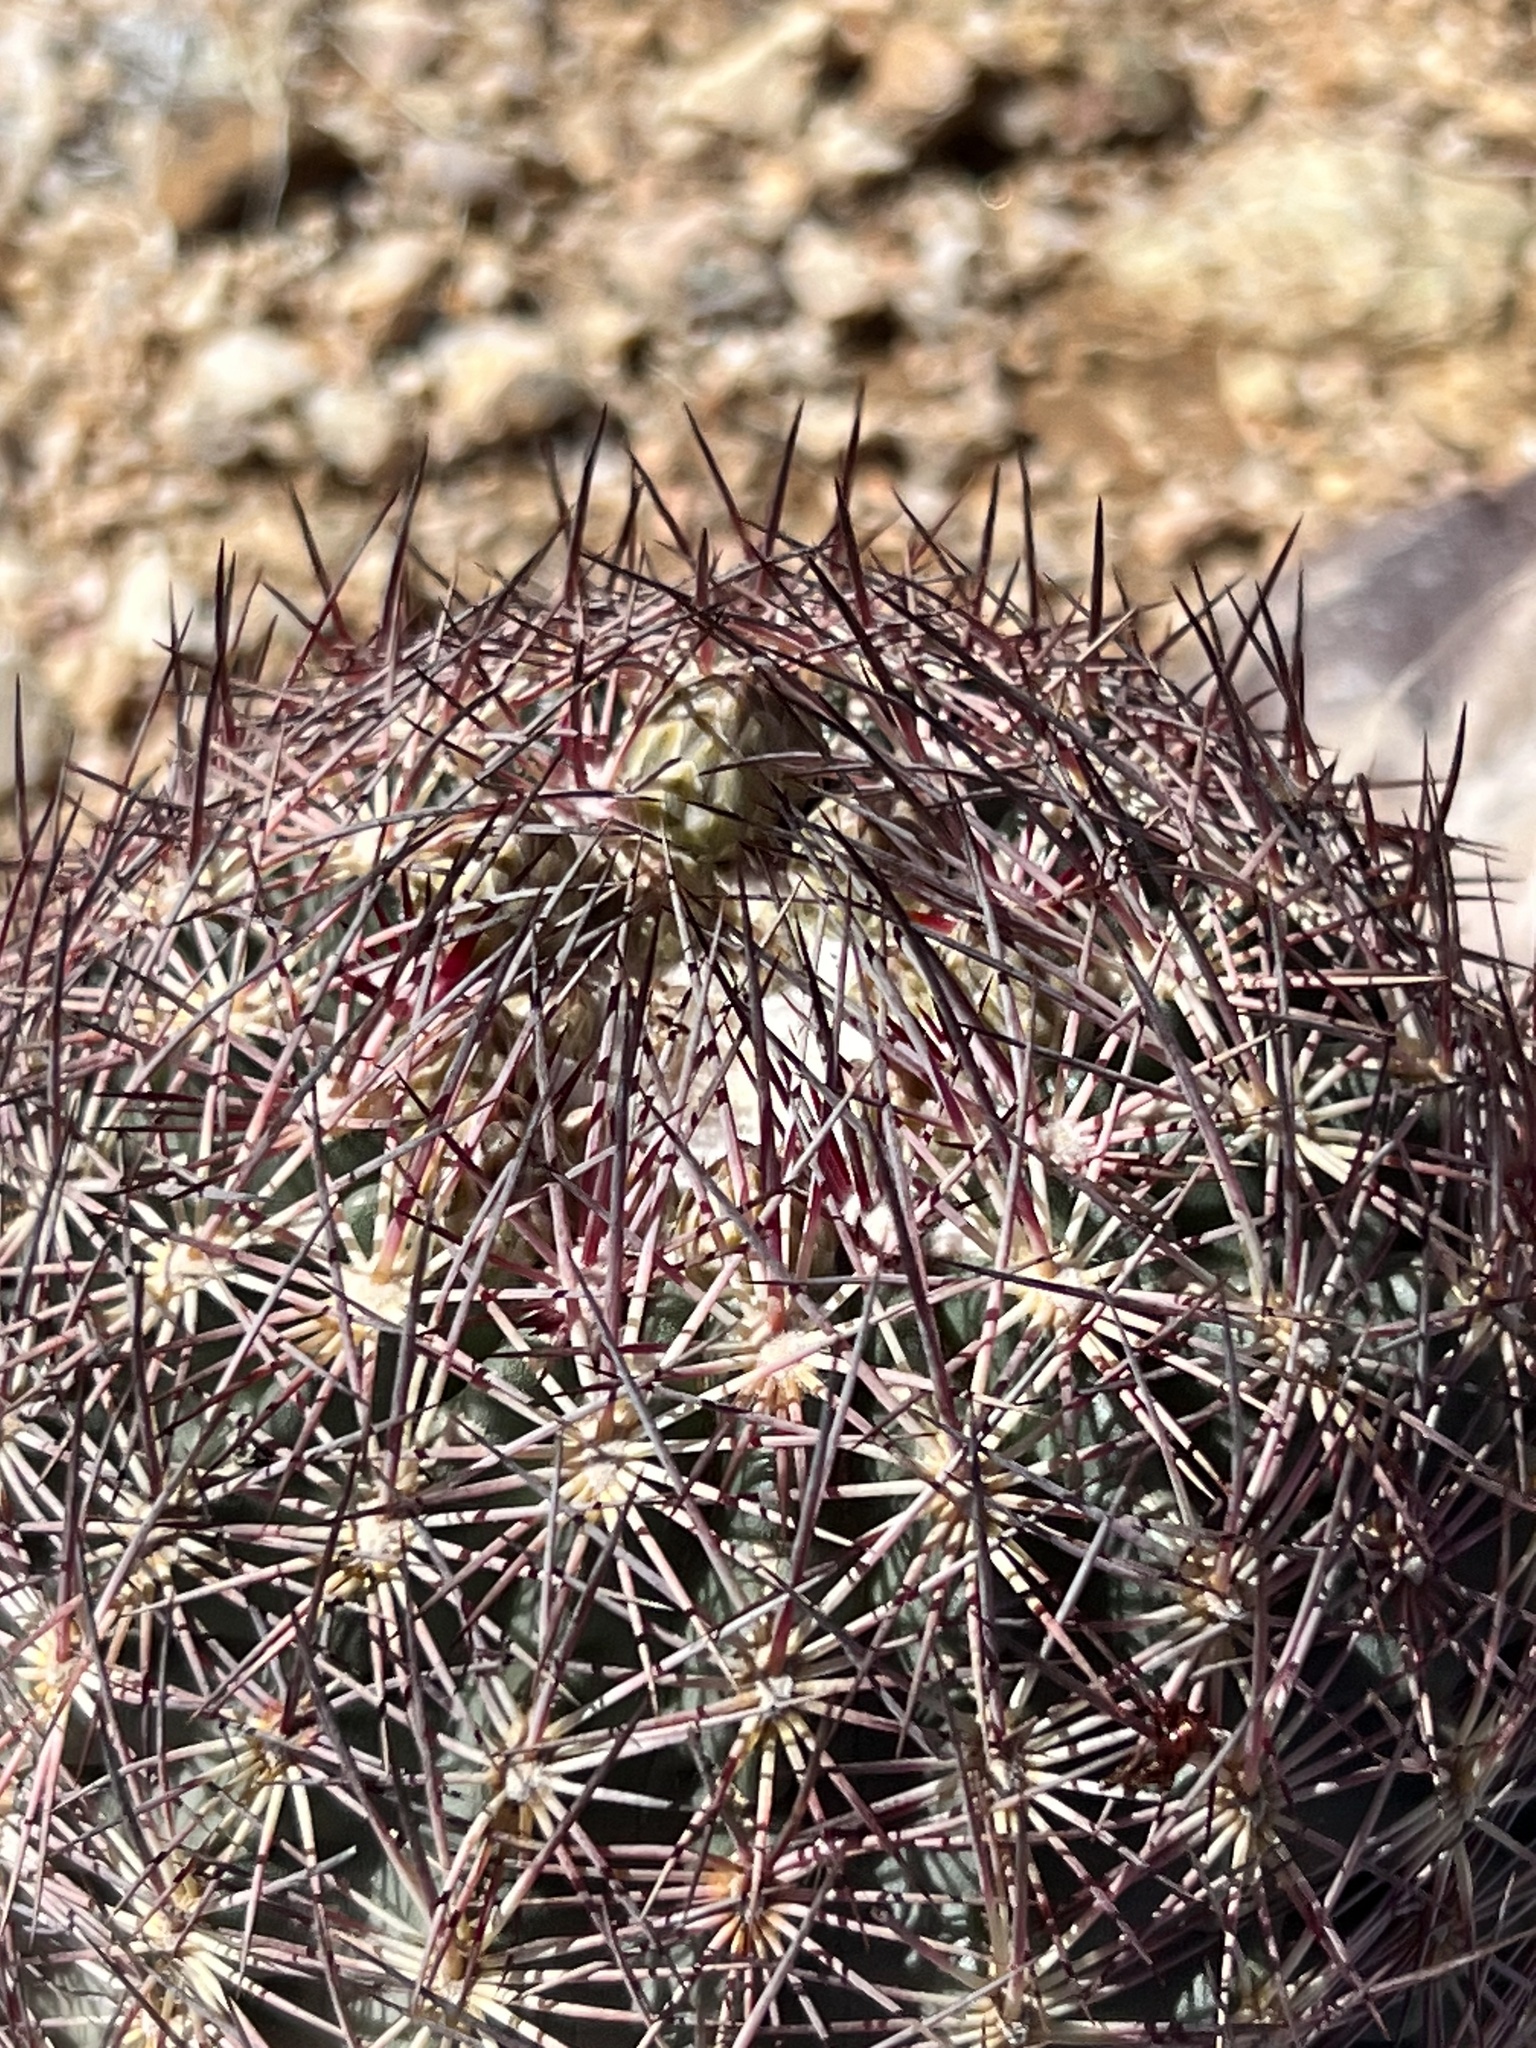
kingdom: Plantae
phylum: Tracheophyta
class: Magnoliopsida
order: Caryophyllales
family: Cactaceae
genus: Sclerocactus
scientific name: Sclerocactus johnsonii
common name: Eight-spine fishhook cactus
